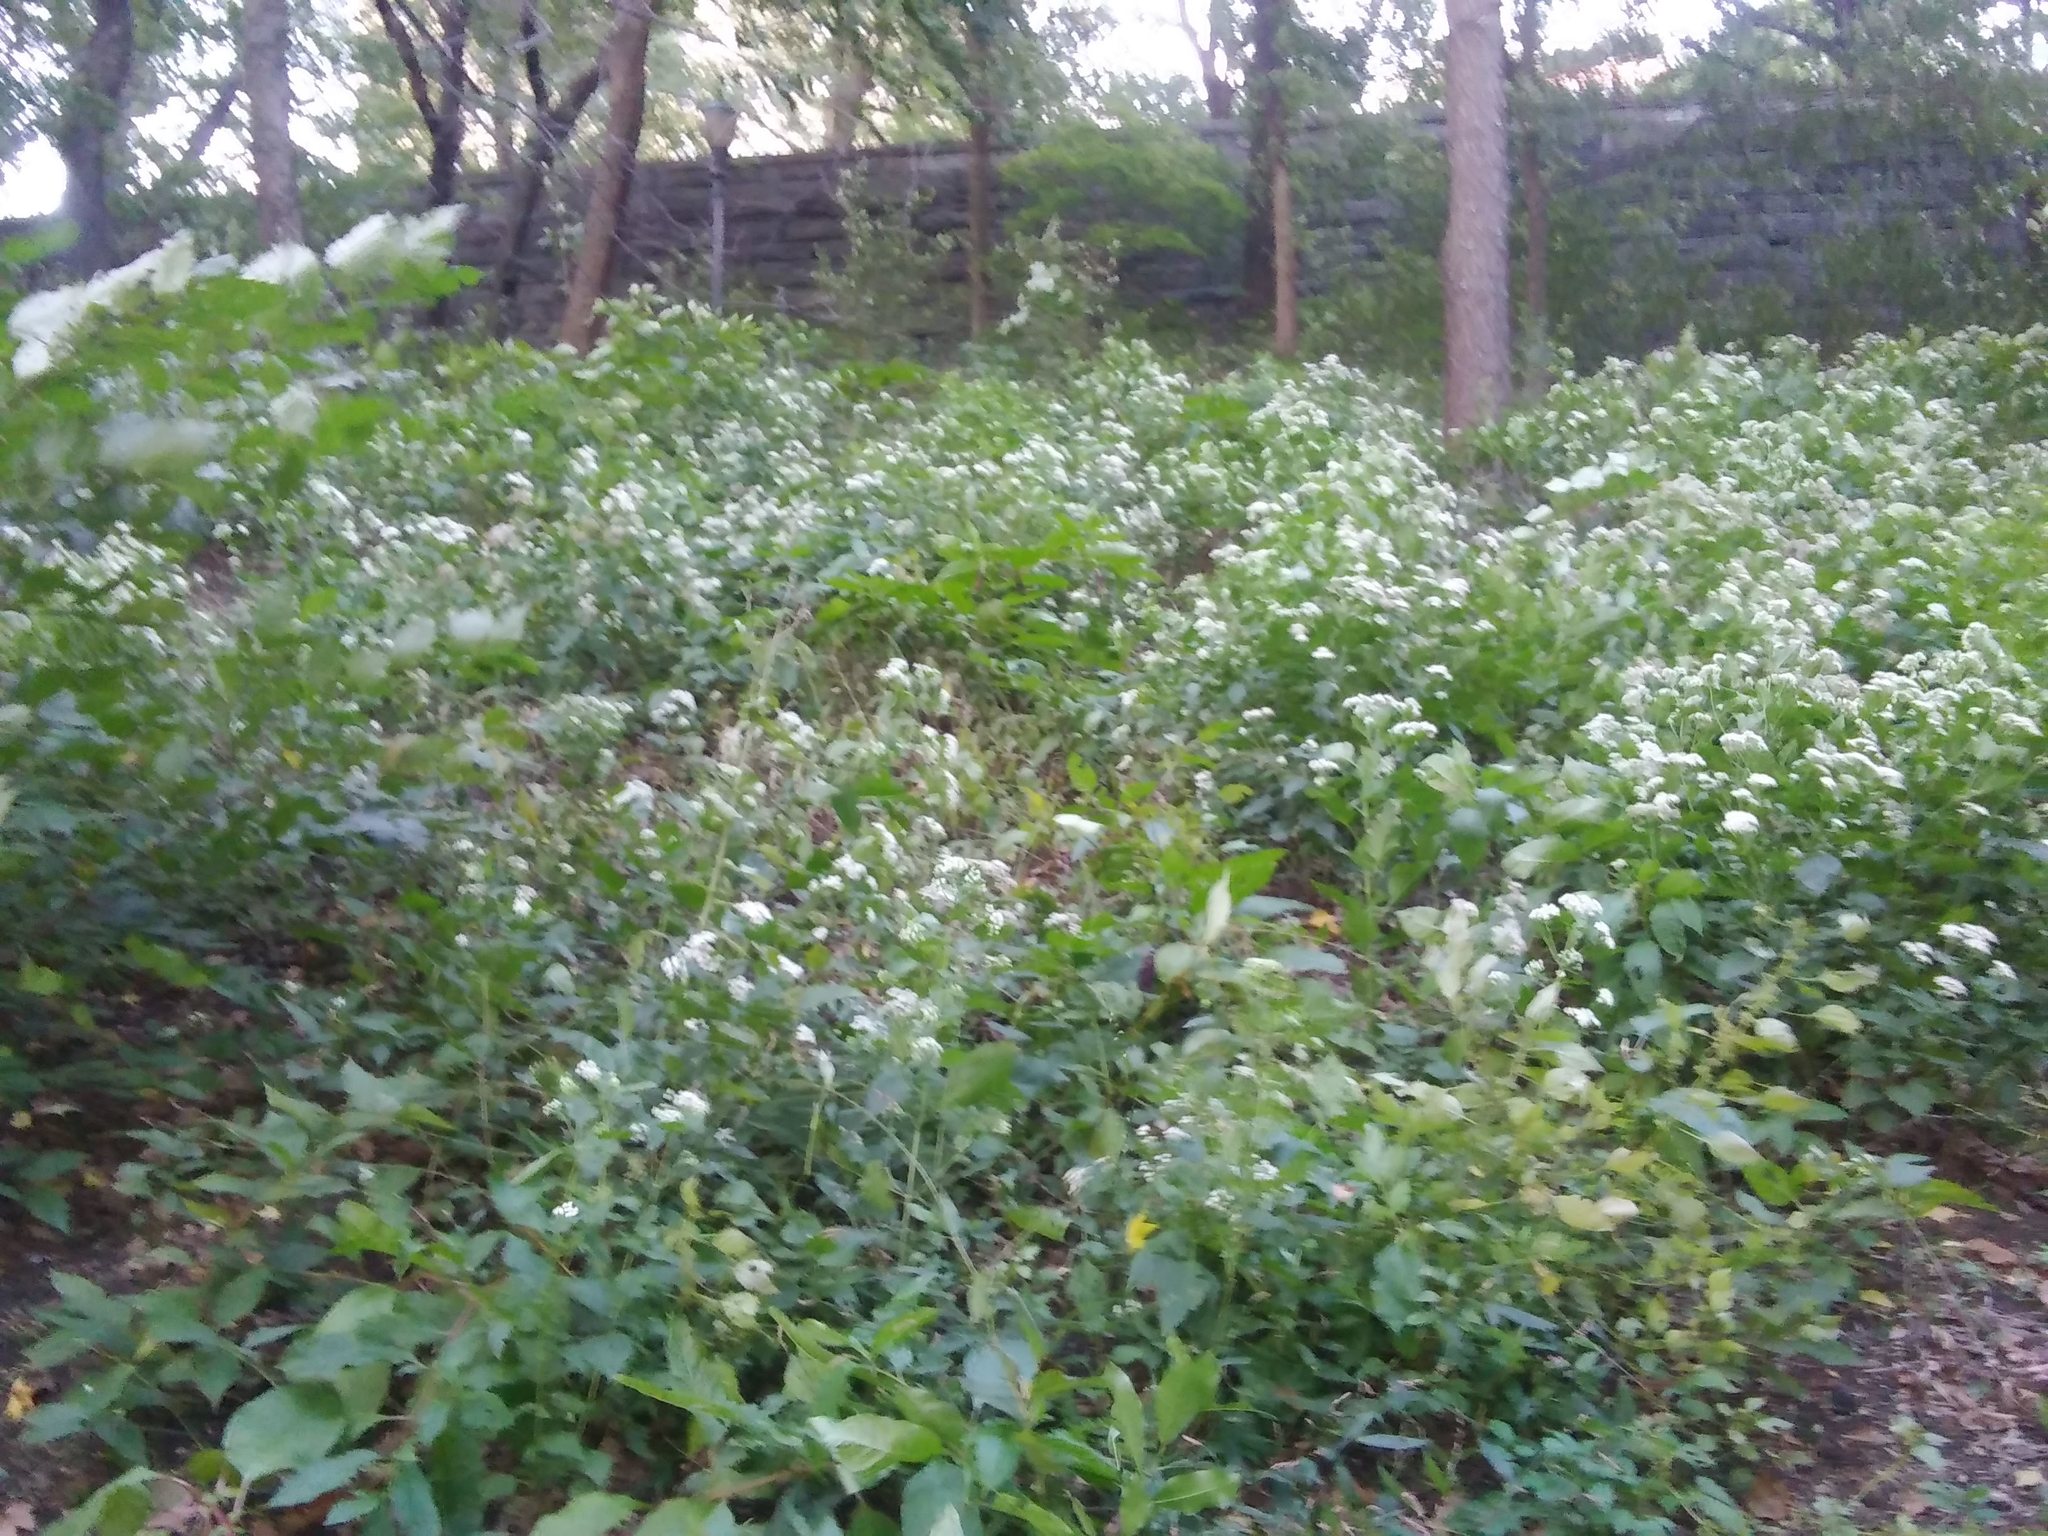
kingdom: Plantae
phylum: Tracheophyta
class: Magnoliopsida
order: Asterales
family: Asteraceae
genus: Ageratina
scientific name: Ageratina altissima
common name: White snakeroot
